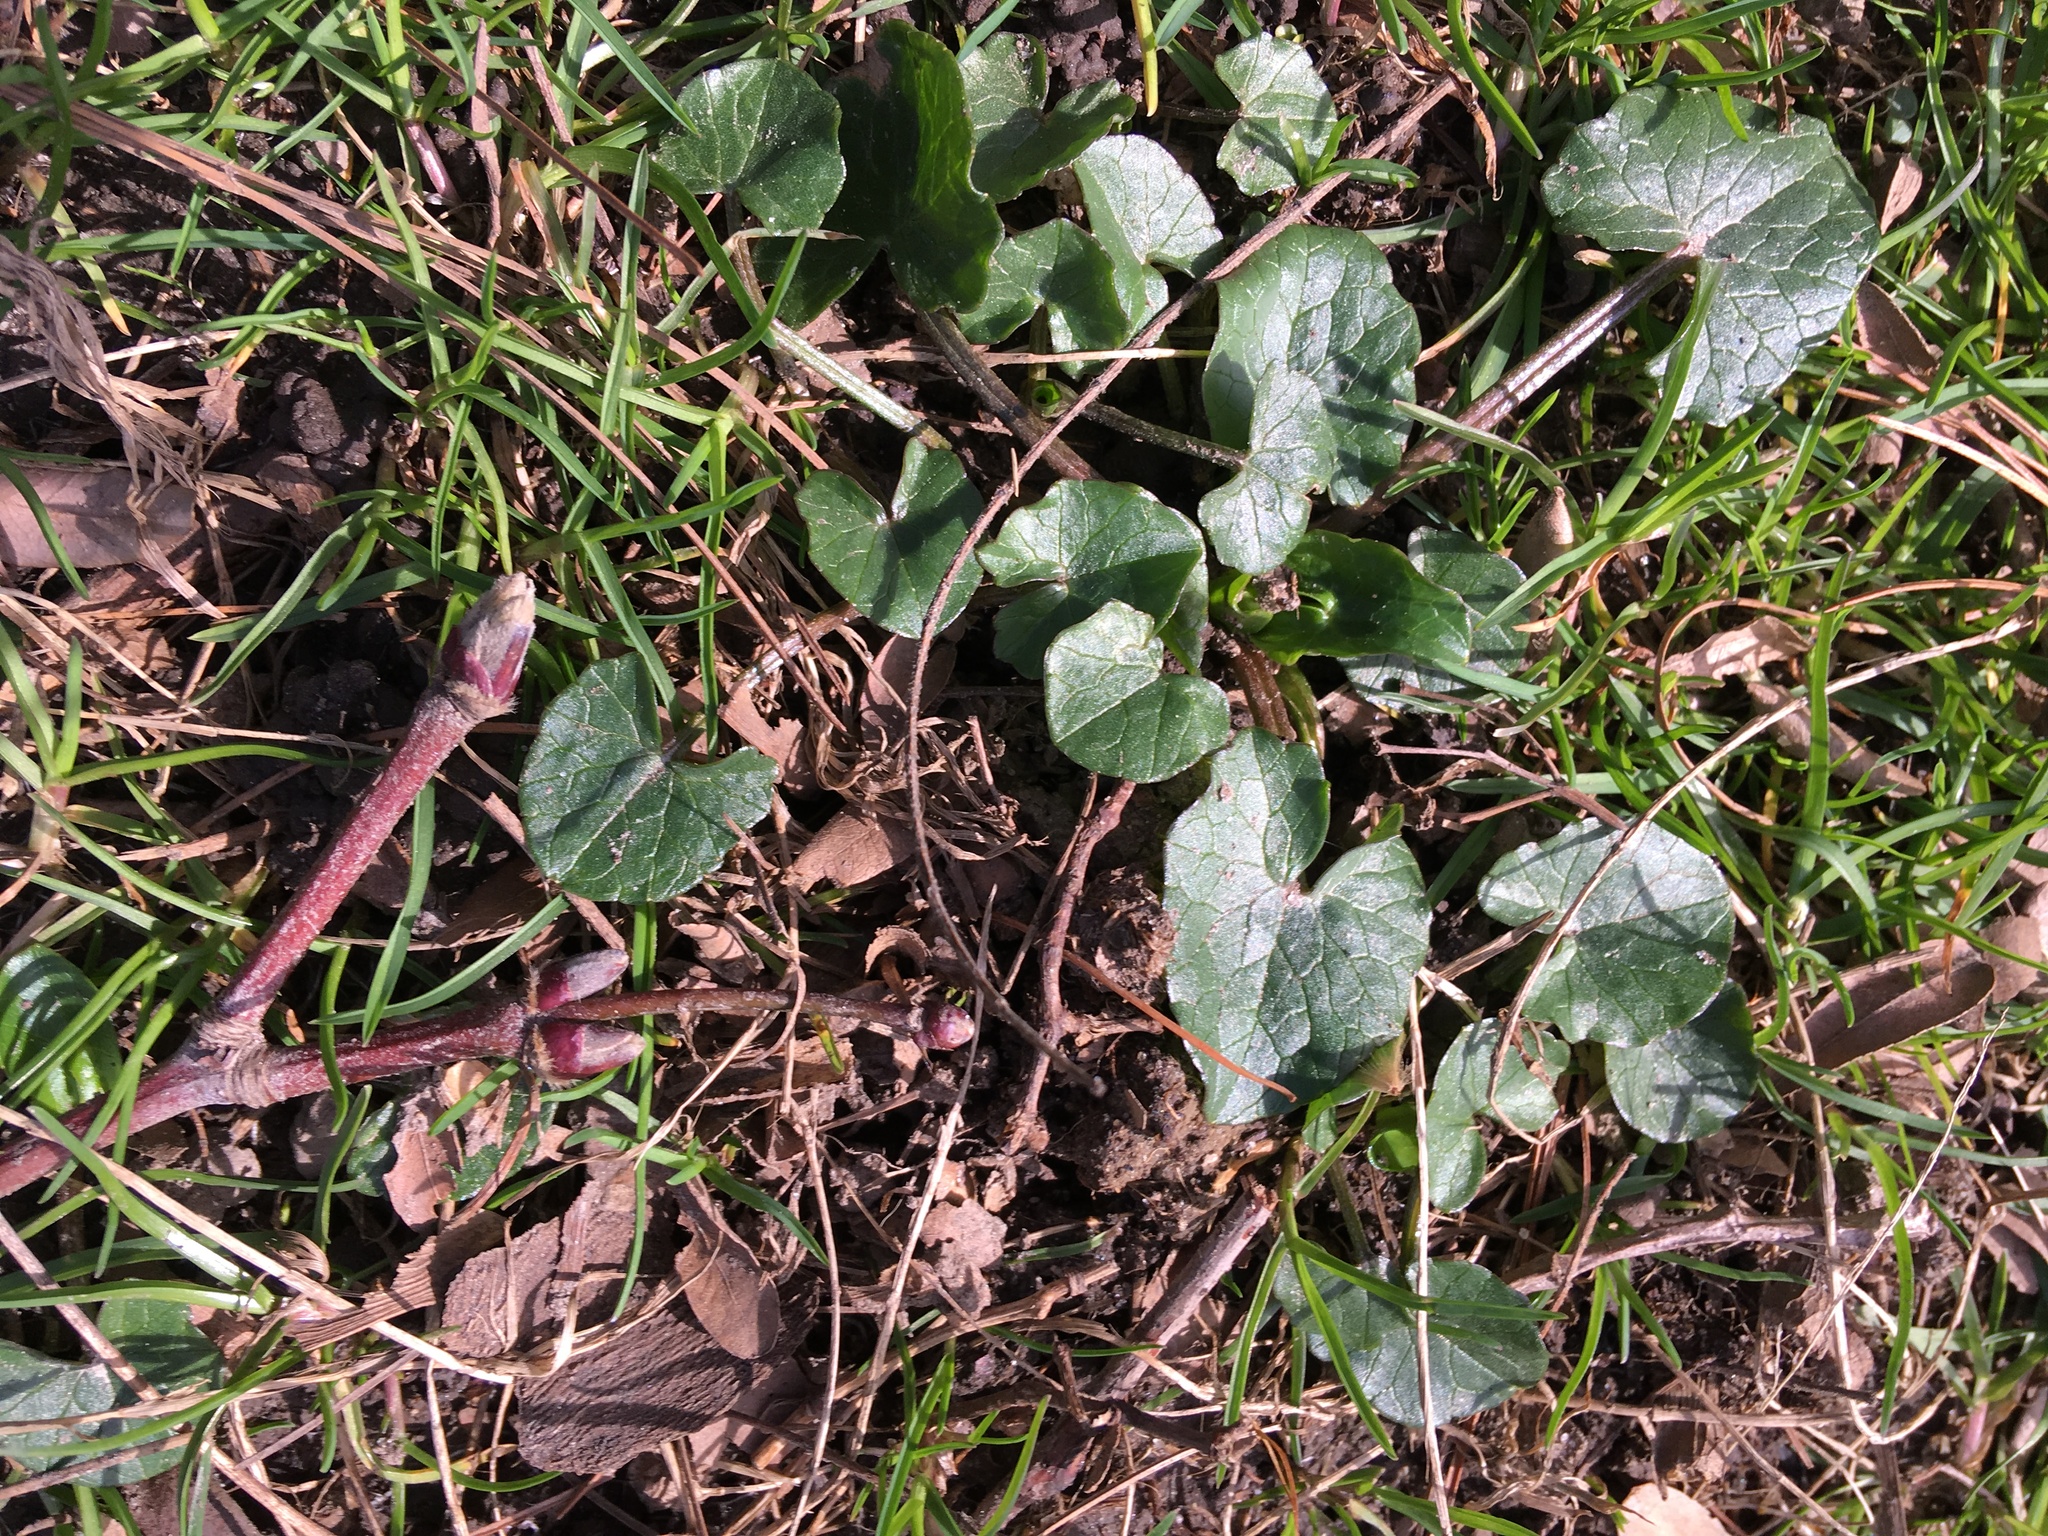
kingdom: Plantae
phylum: Tracheophyta
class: Magnoliopsida
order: Ranunculales
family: Ranunculaceae
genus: Ficaria
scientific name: Ficaria verna
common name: Lesser celandine
